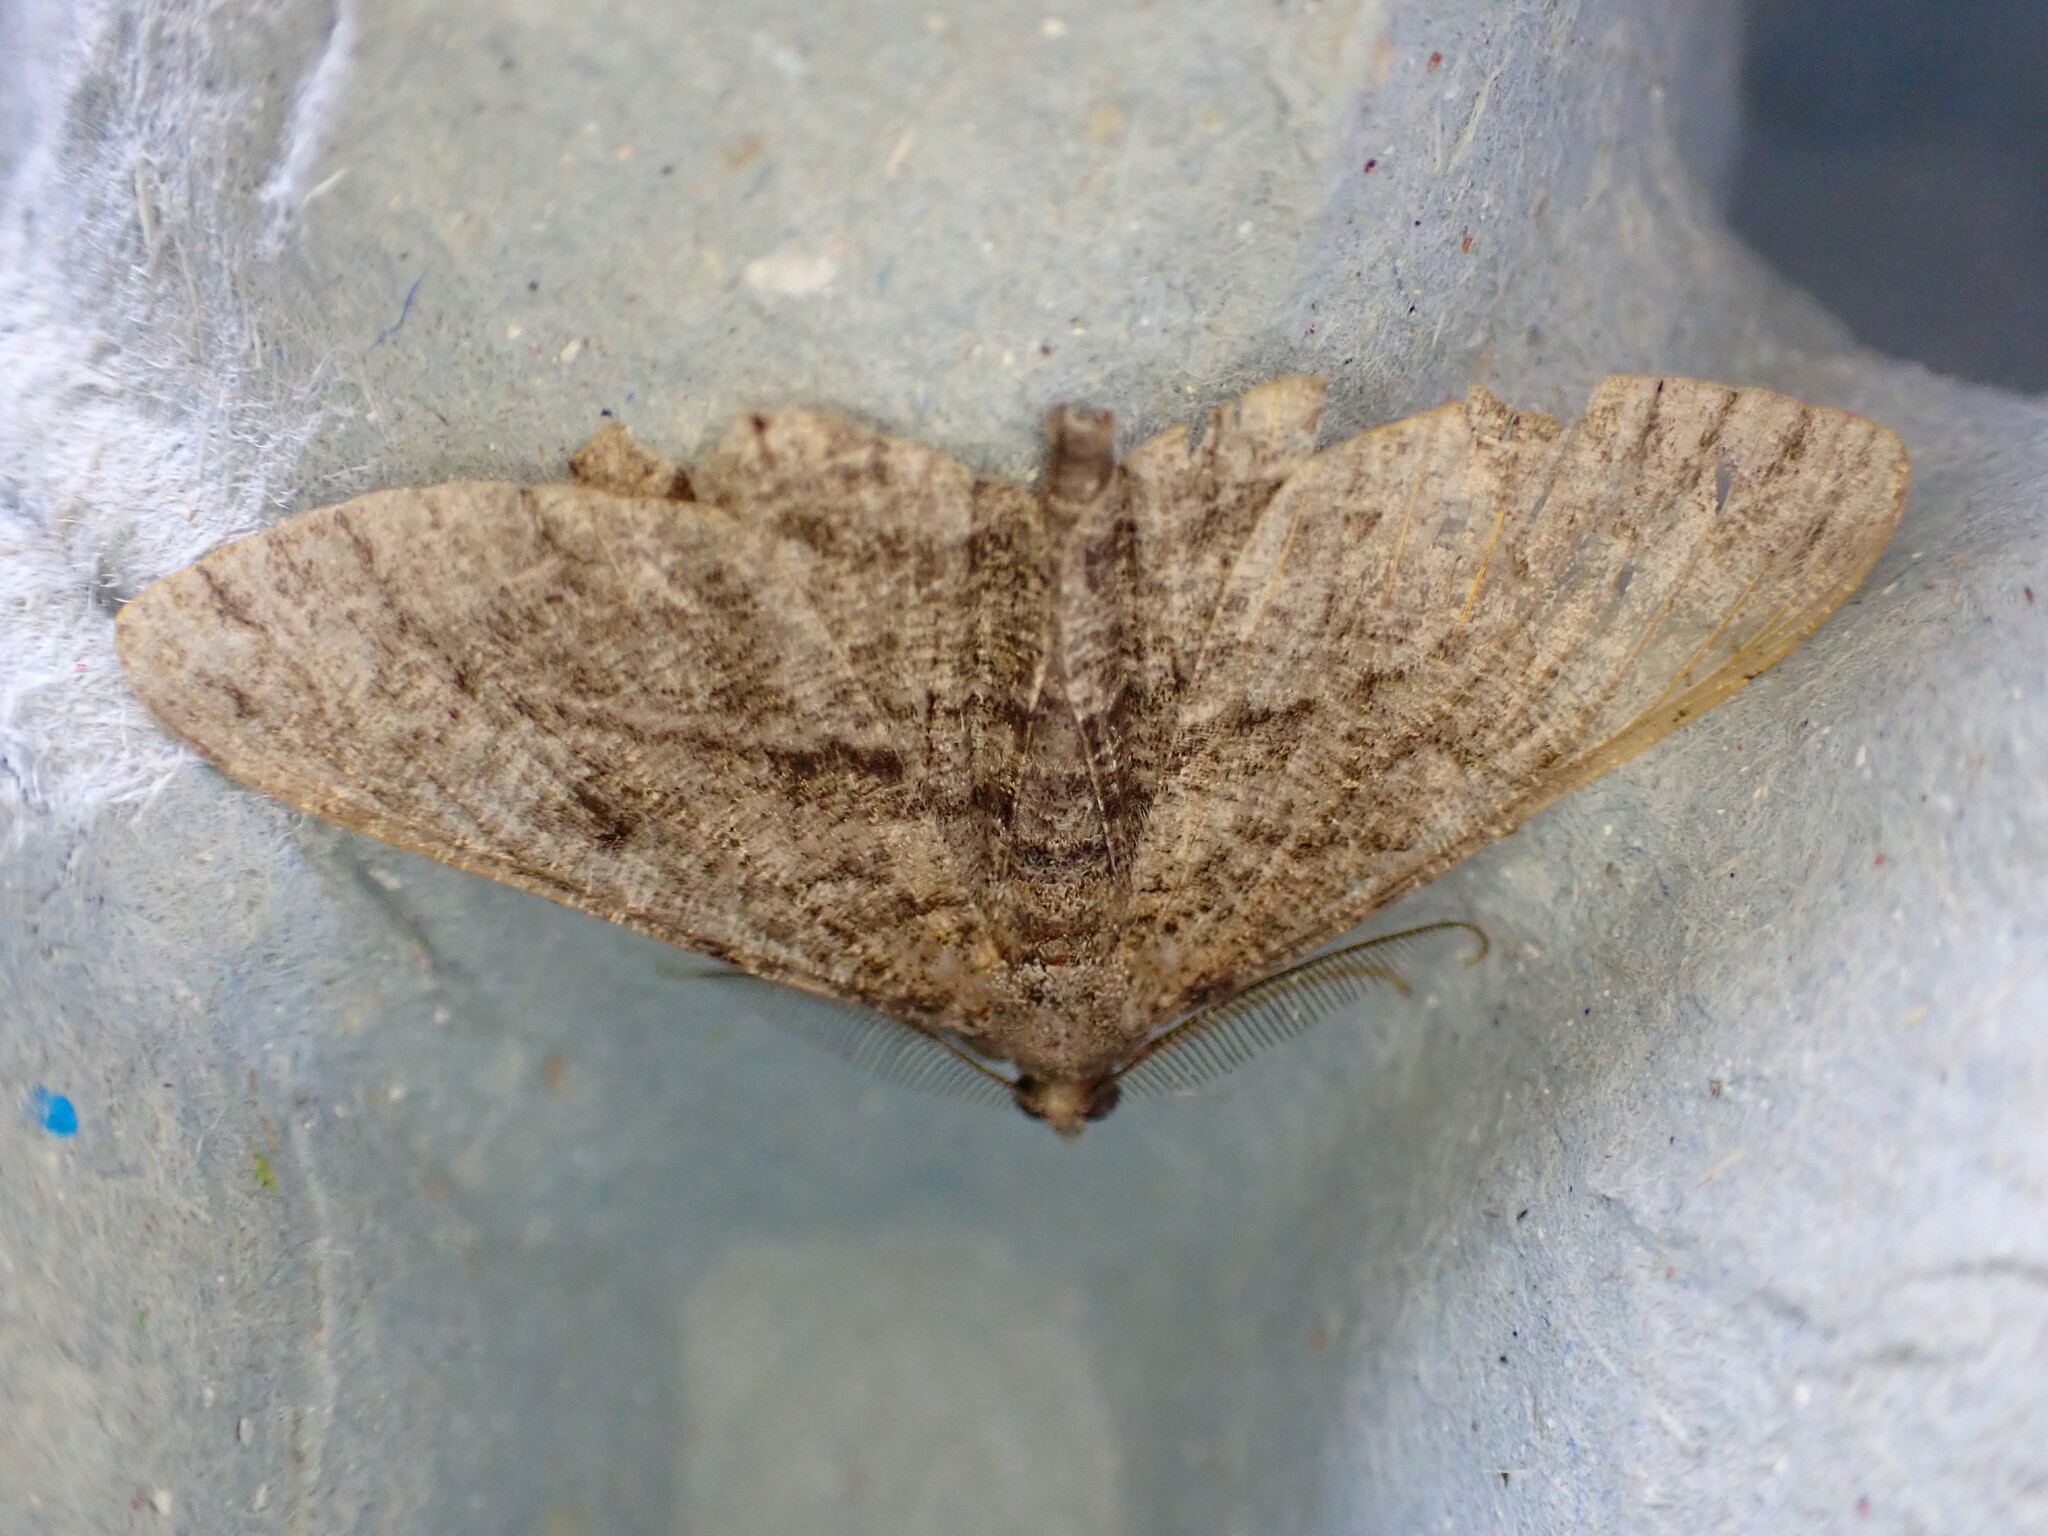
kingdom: Animalia
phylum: Arthropoda
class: Insecta
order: Lepidoptera
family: Geometridae
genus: Peribatodes
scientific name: Peribatodes rhomboidaria
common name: Willow beauty
